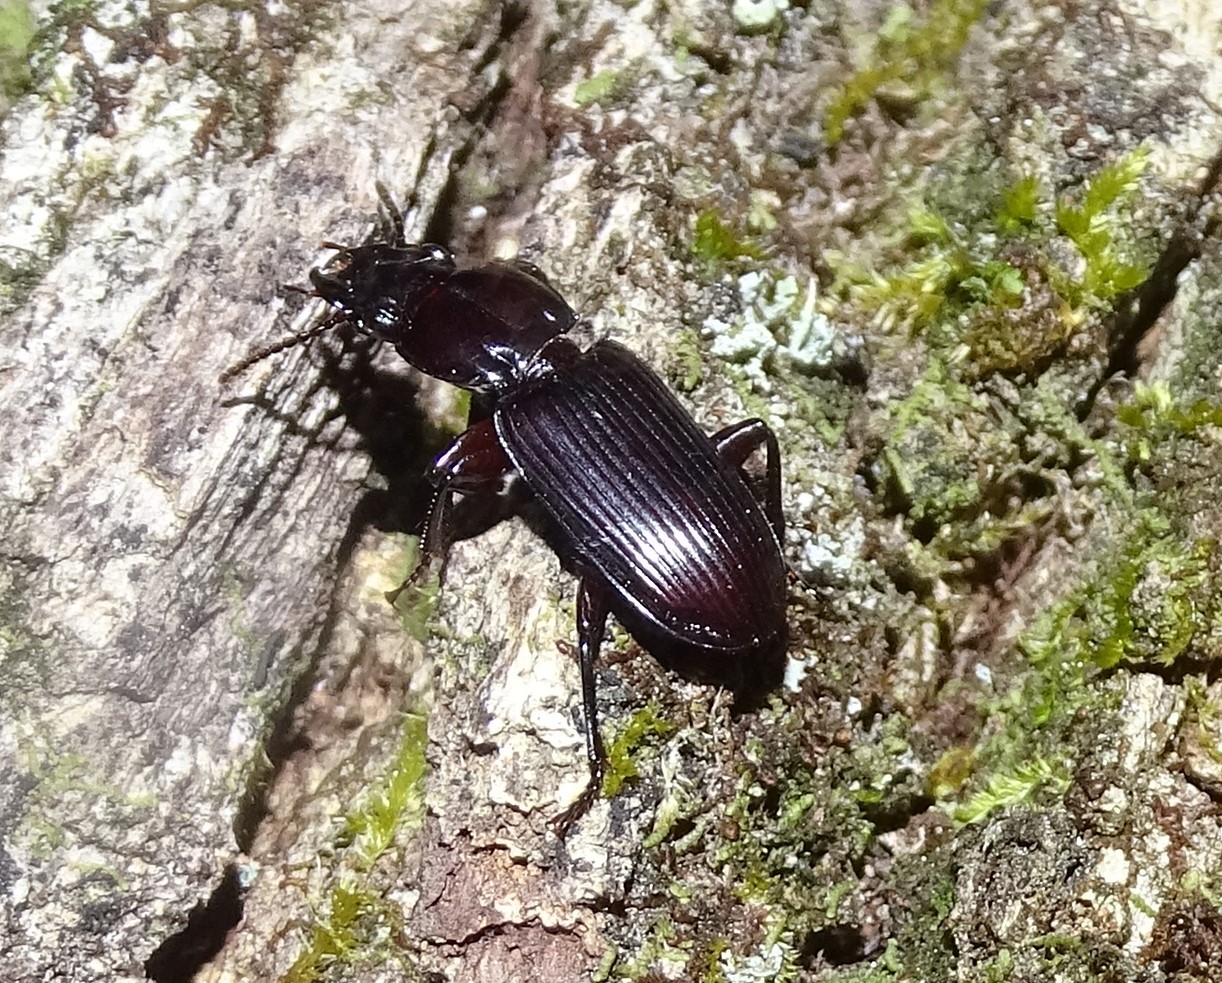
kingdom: Animalia
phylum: Arthropoda
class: Insecta
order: Coleoptera
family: Carabidae
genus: Morion
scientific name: Morion monilicornis
